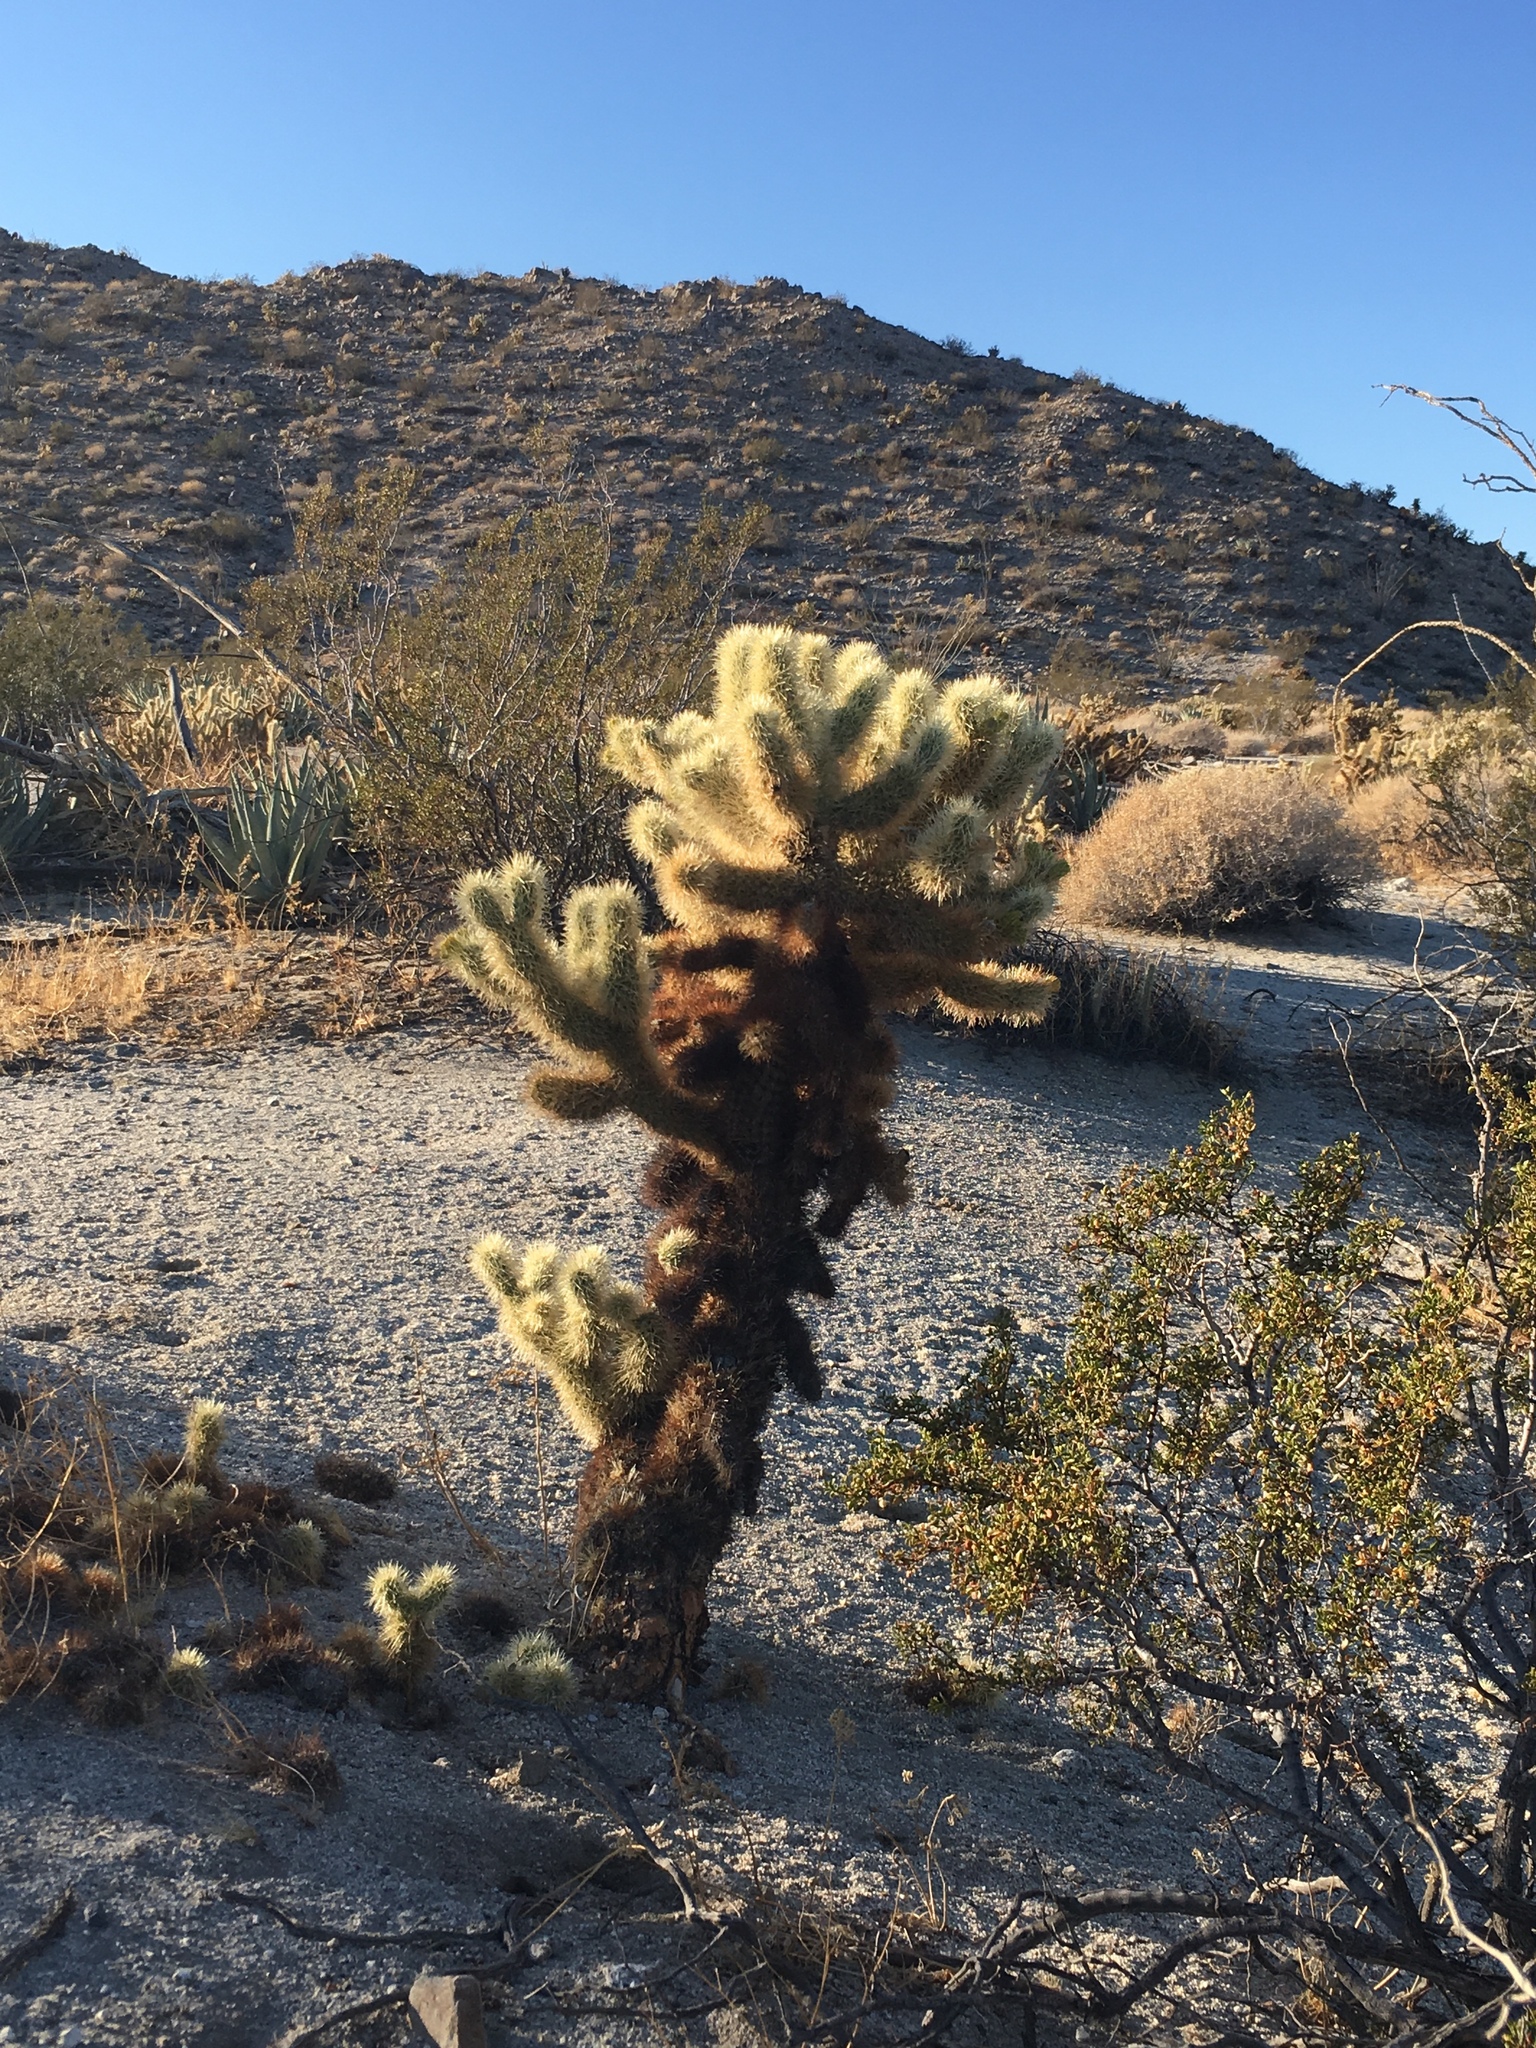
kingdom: Plantae
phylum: Tracheophyta
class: Magnoliopsida
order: Caryophyllales
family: Cactaceae
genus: Cylindropuntia
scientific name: Cylindropuntia fosbergii
